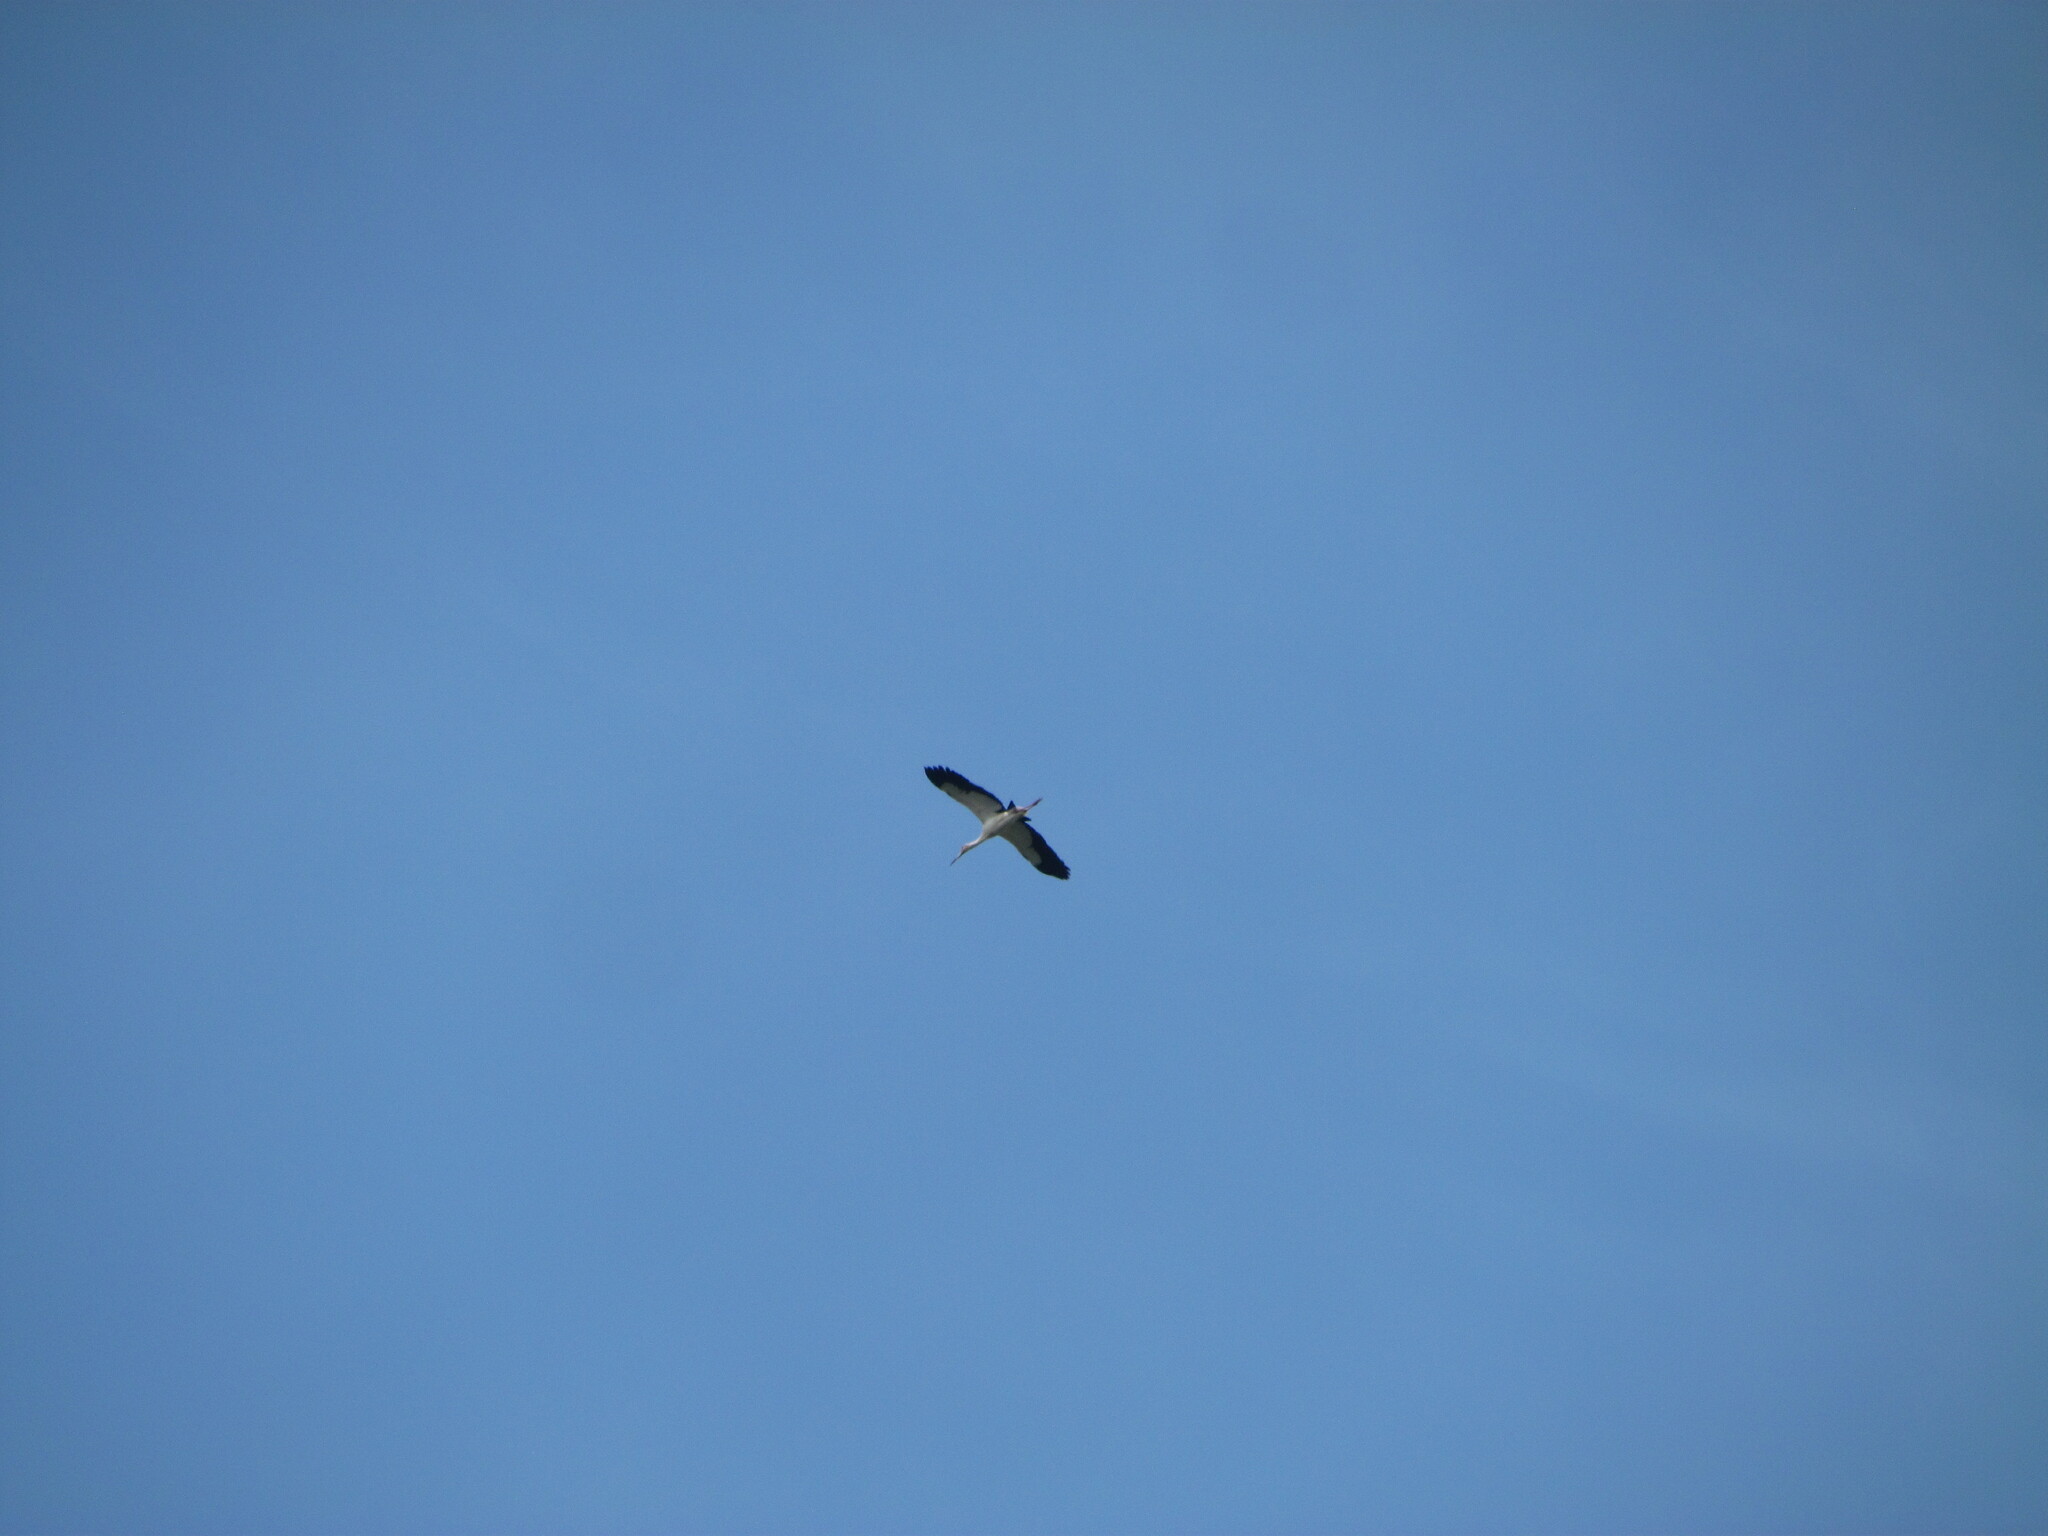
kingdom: Animalia
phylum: Chordata
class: Aves
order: Ciconiiformes
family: Ciconiidae
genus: Ciconia
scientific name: Ciconia maguari
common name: Maguari stork
